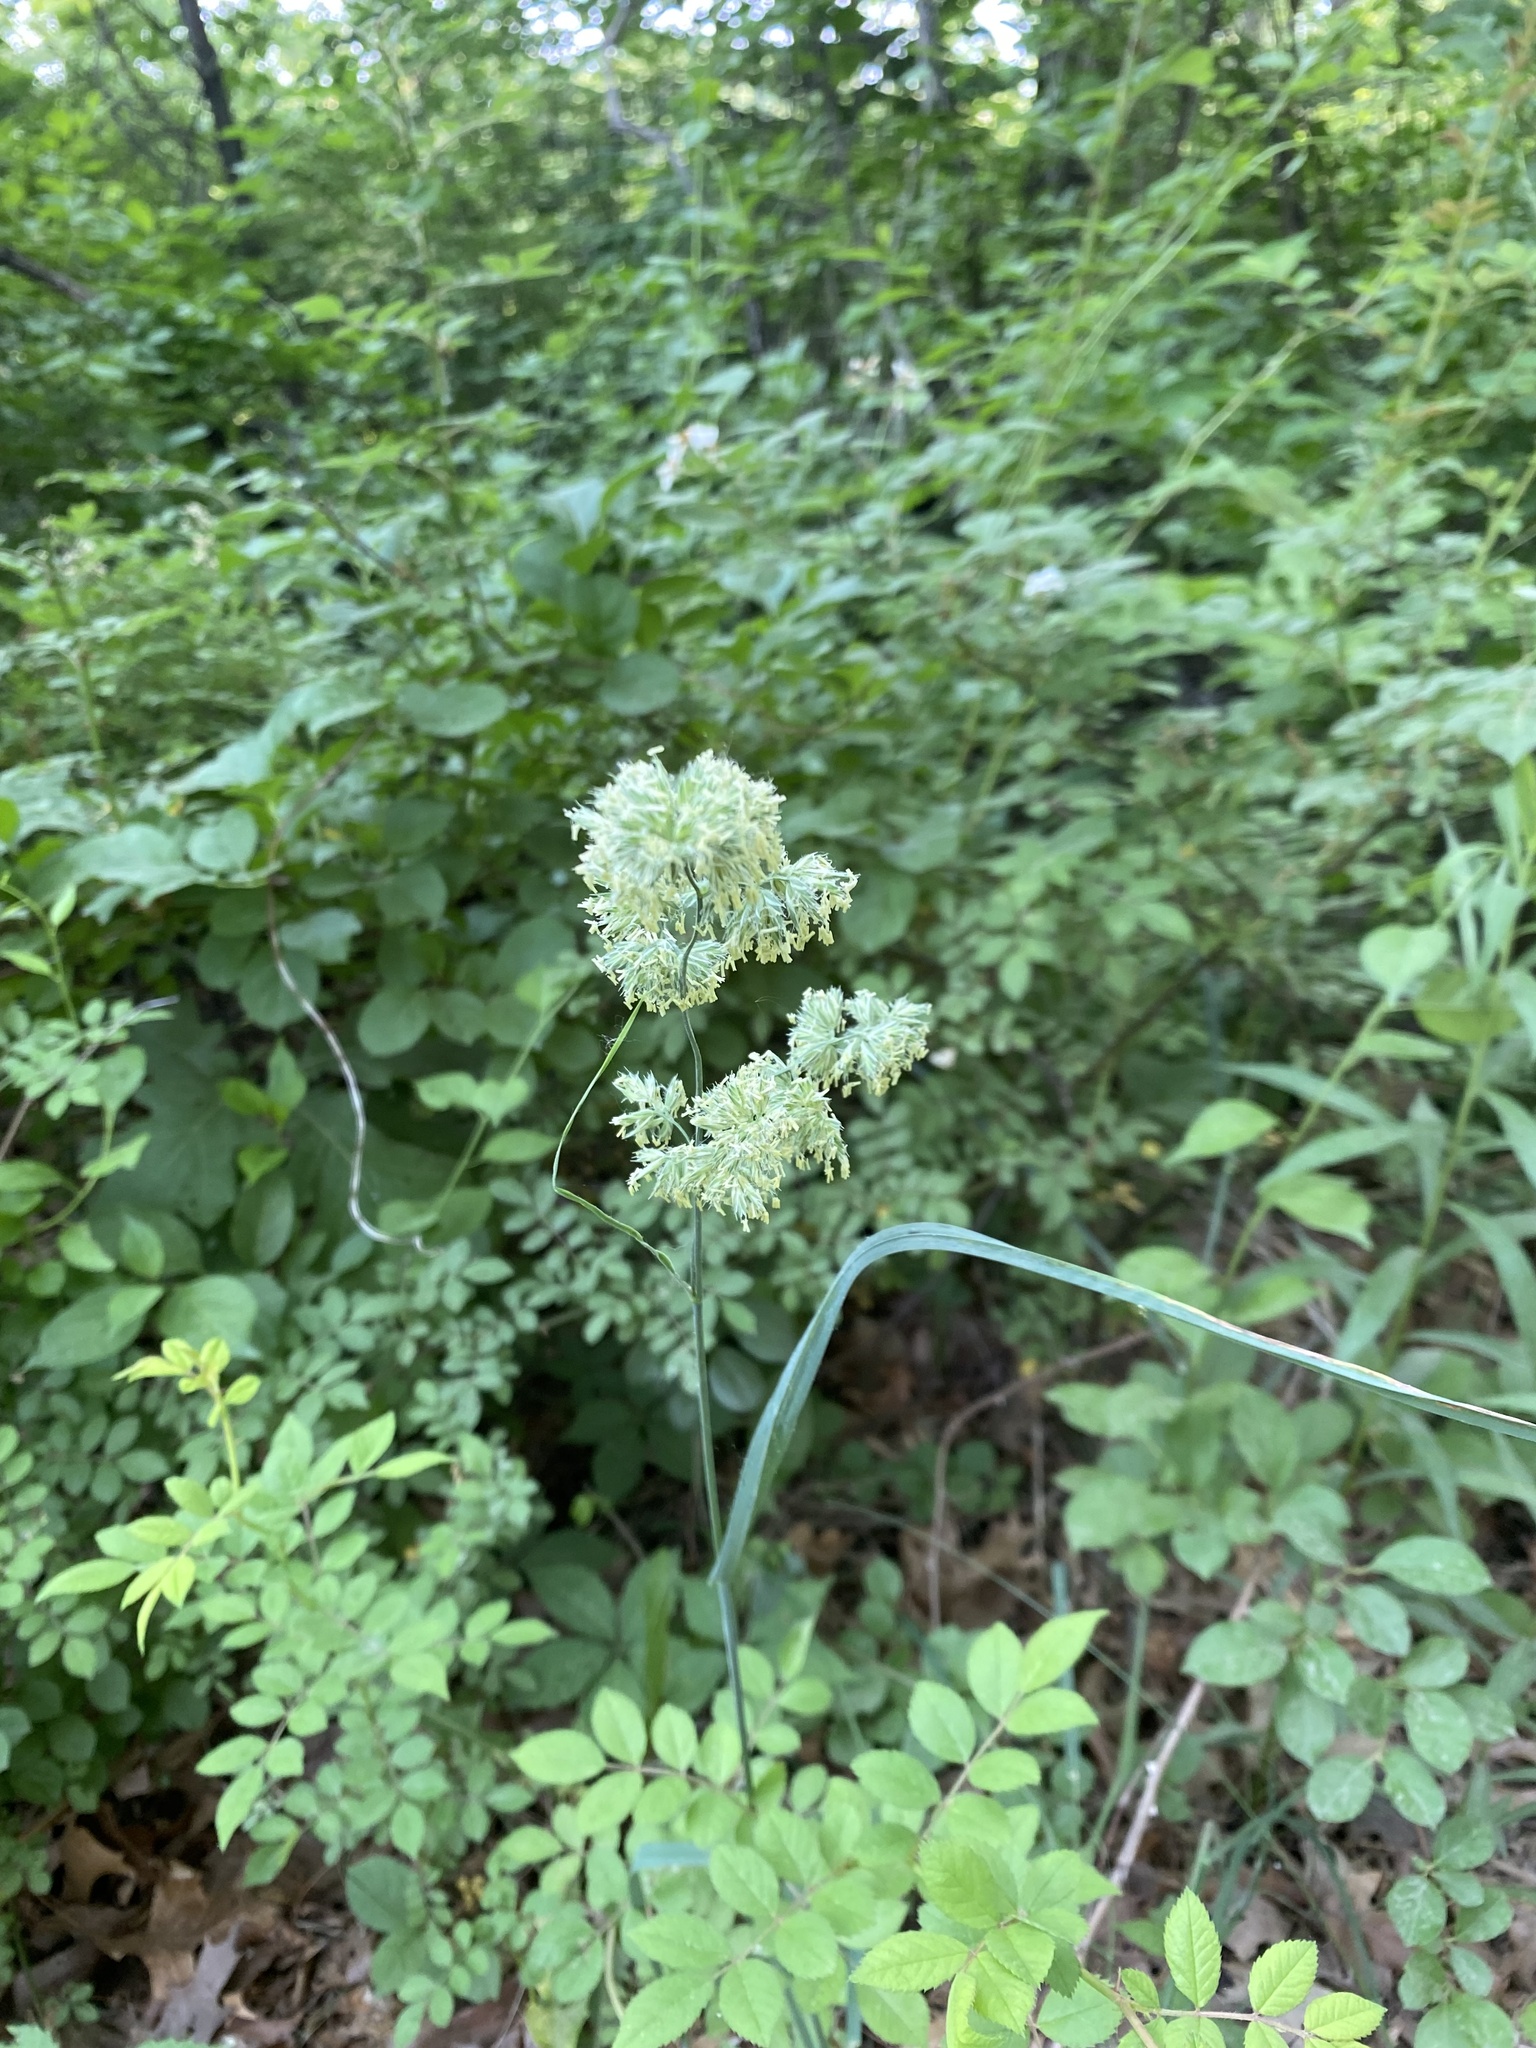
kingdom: Plantae
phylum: Tracheophyta
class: Liliopsida
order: Poales
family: Poaceae
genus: Dactylis
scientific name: Dactylis glomerata
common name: Orchardgrass
